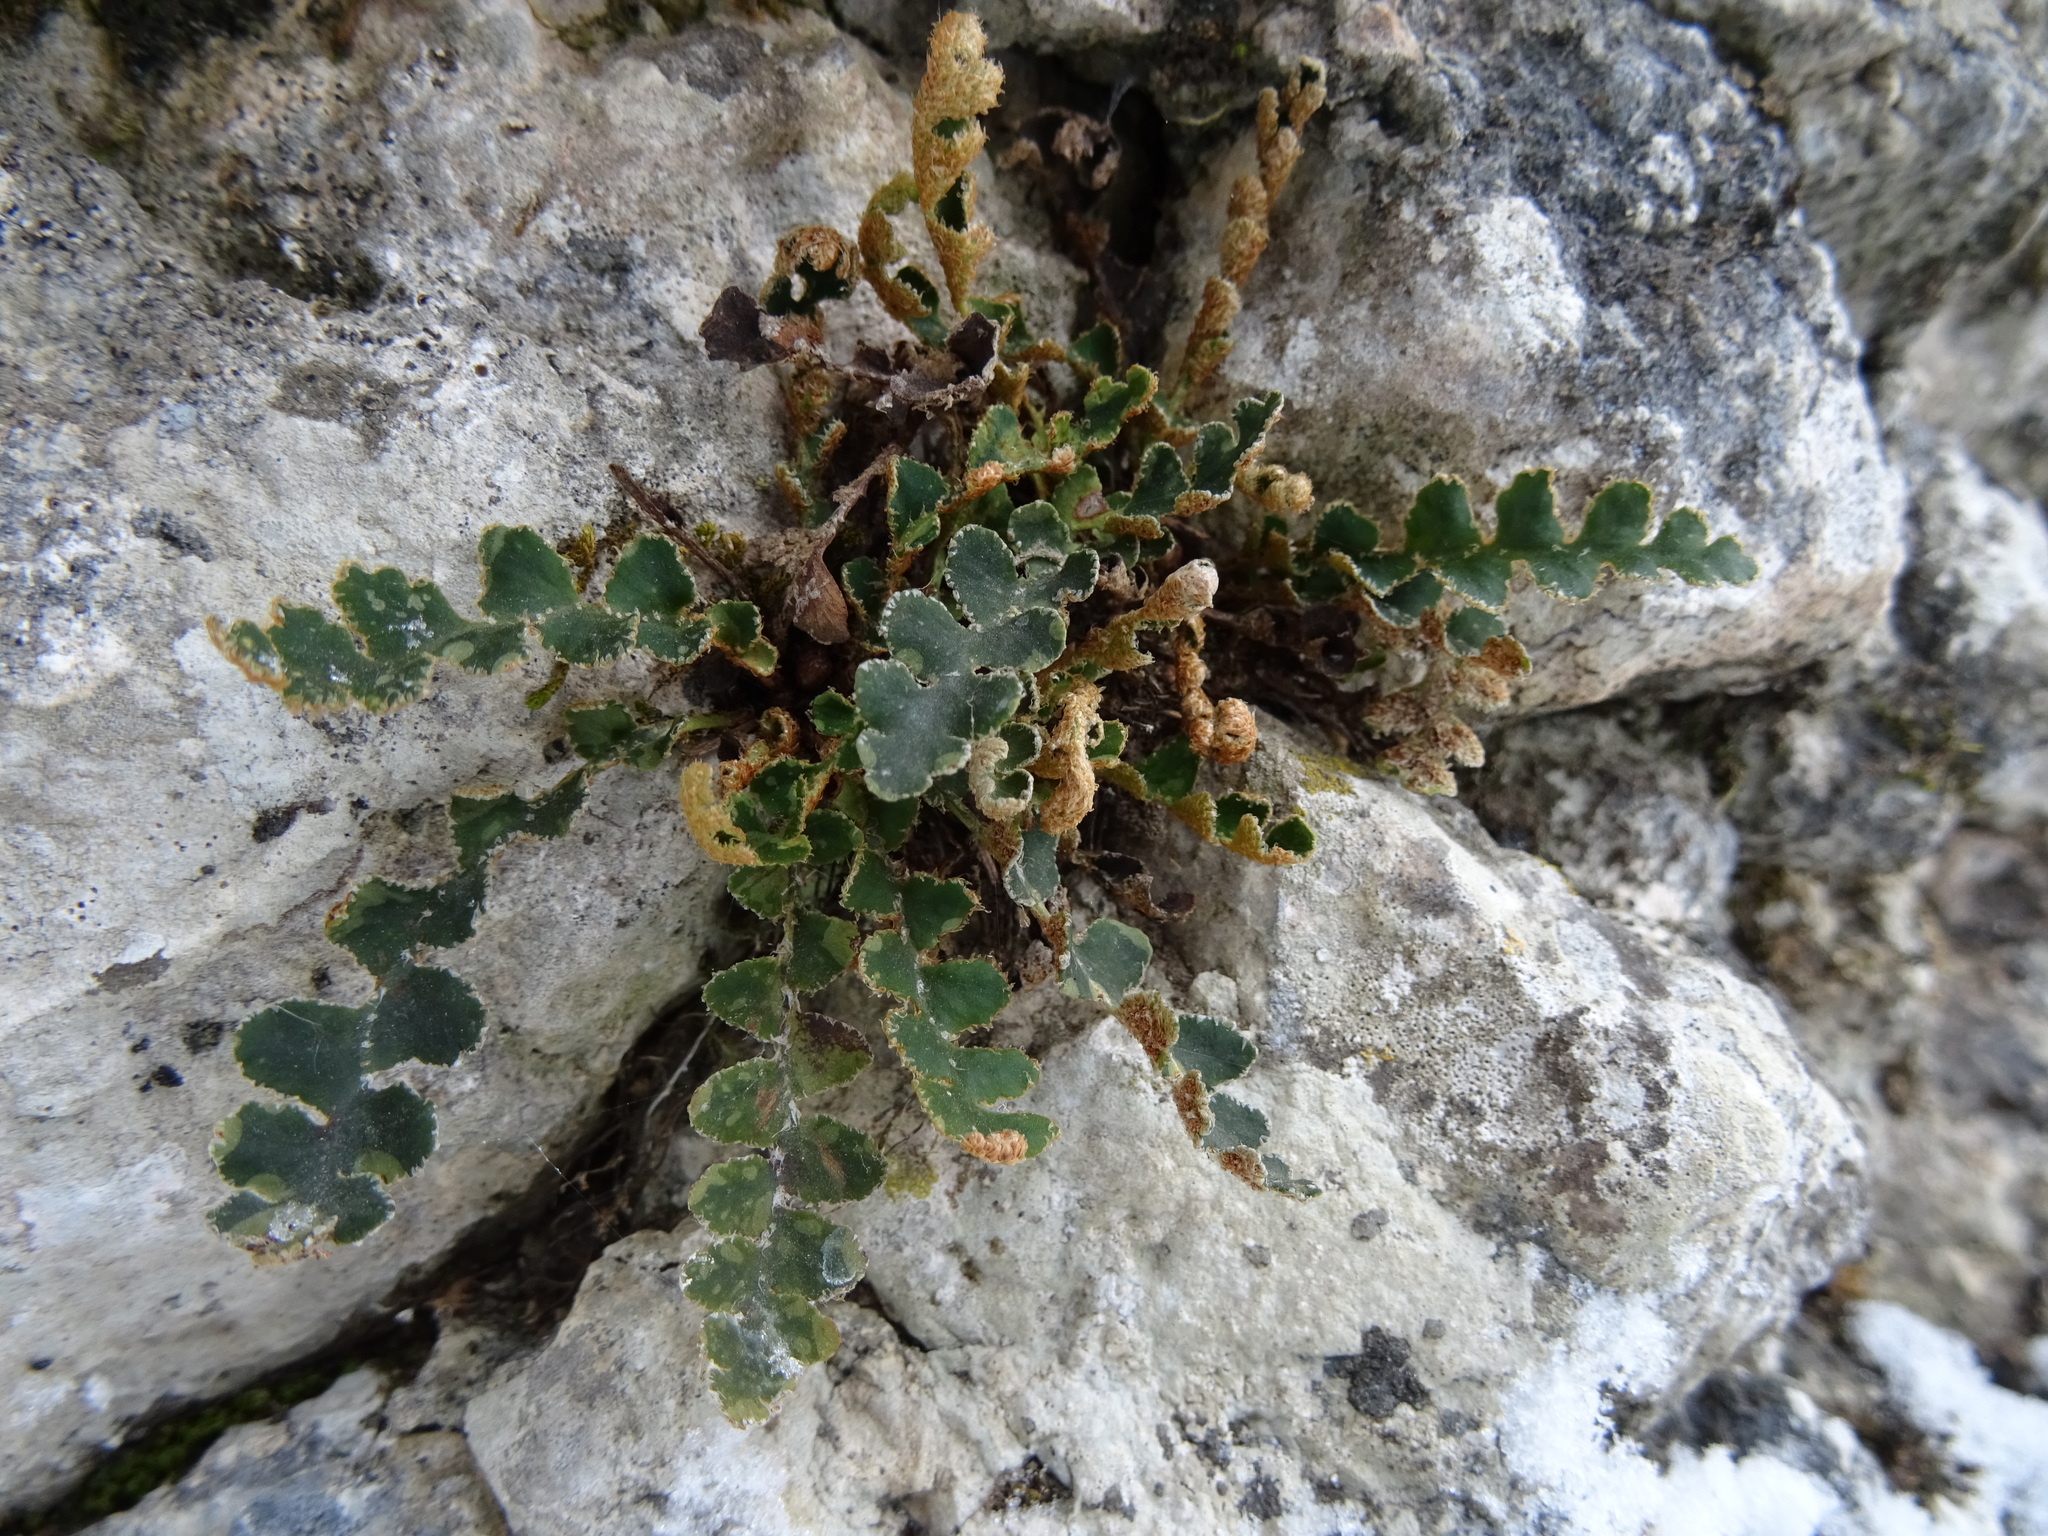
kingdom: Plantae
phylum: Tracheophyta
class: Polypodiopsida
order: Polypodiales
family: Aspleniaceae
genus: Asplenium
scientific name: Asplenium ceterach
